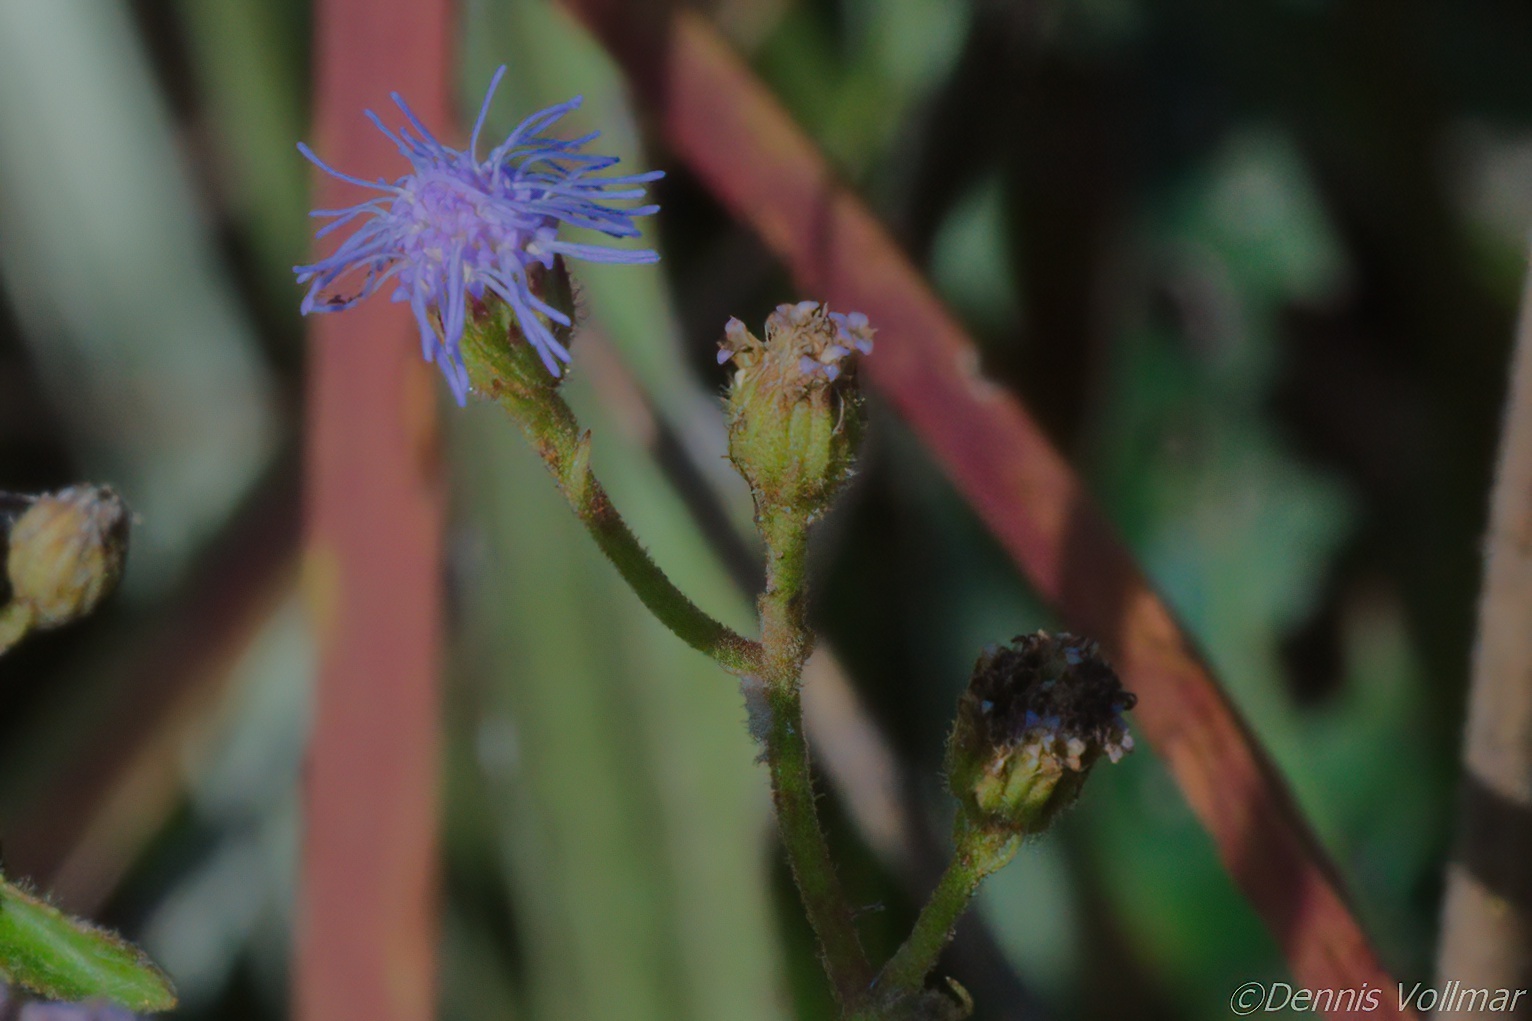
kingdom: Plantae
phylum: Tracheophyta
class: Magnoliopsida
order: Asterales
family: Asteraceae
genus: Conoclinium
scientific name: Conoclinium coelestinum
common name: Blue mistflower
